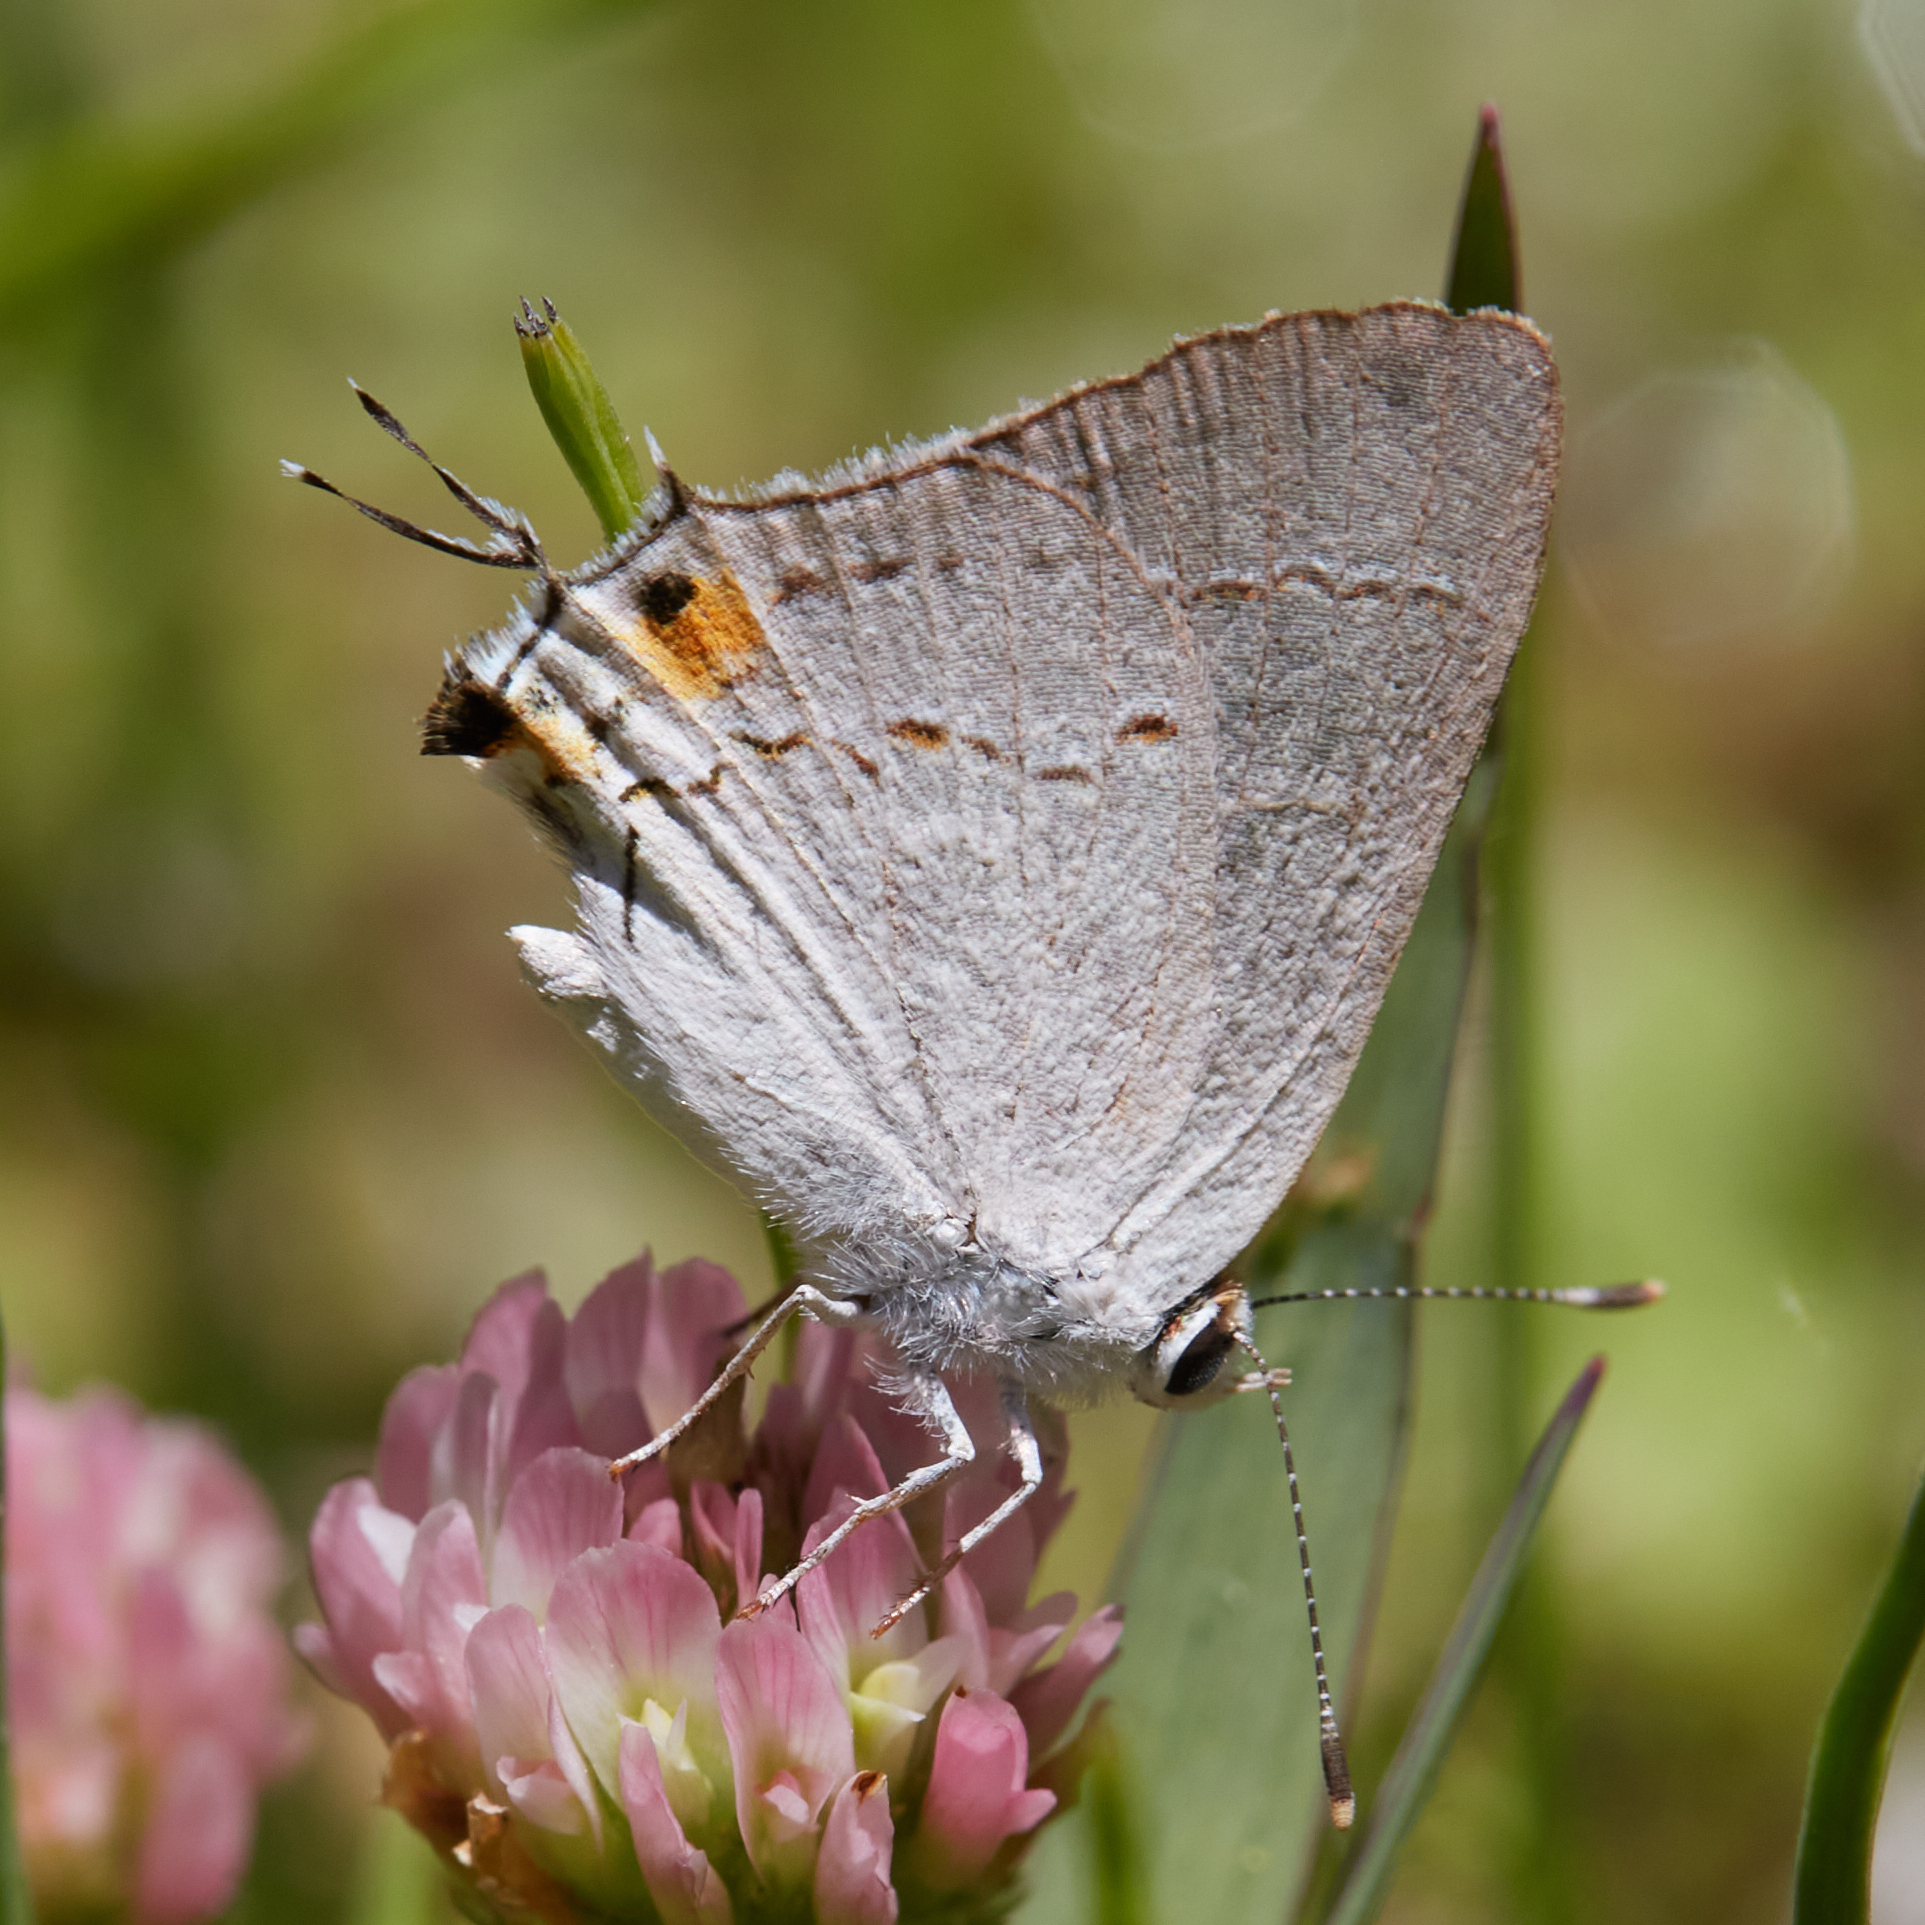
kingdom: Animalia
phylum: Arthropoda
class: Insecta
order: Lepidoptera
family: Lycaenidae
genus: Strymon
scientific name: Strymon melinus
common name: Gray hairstreak
